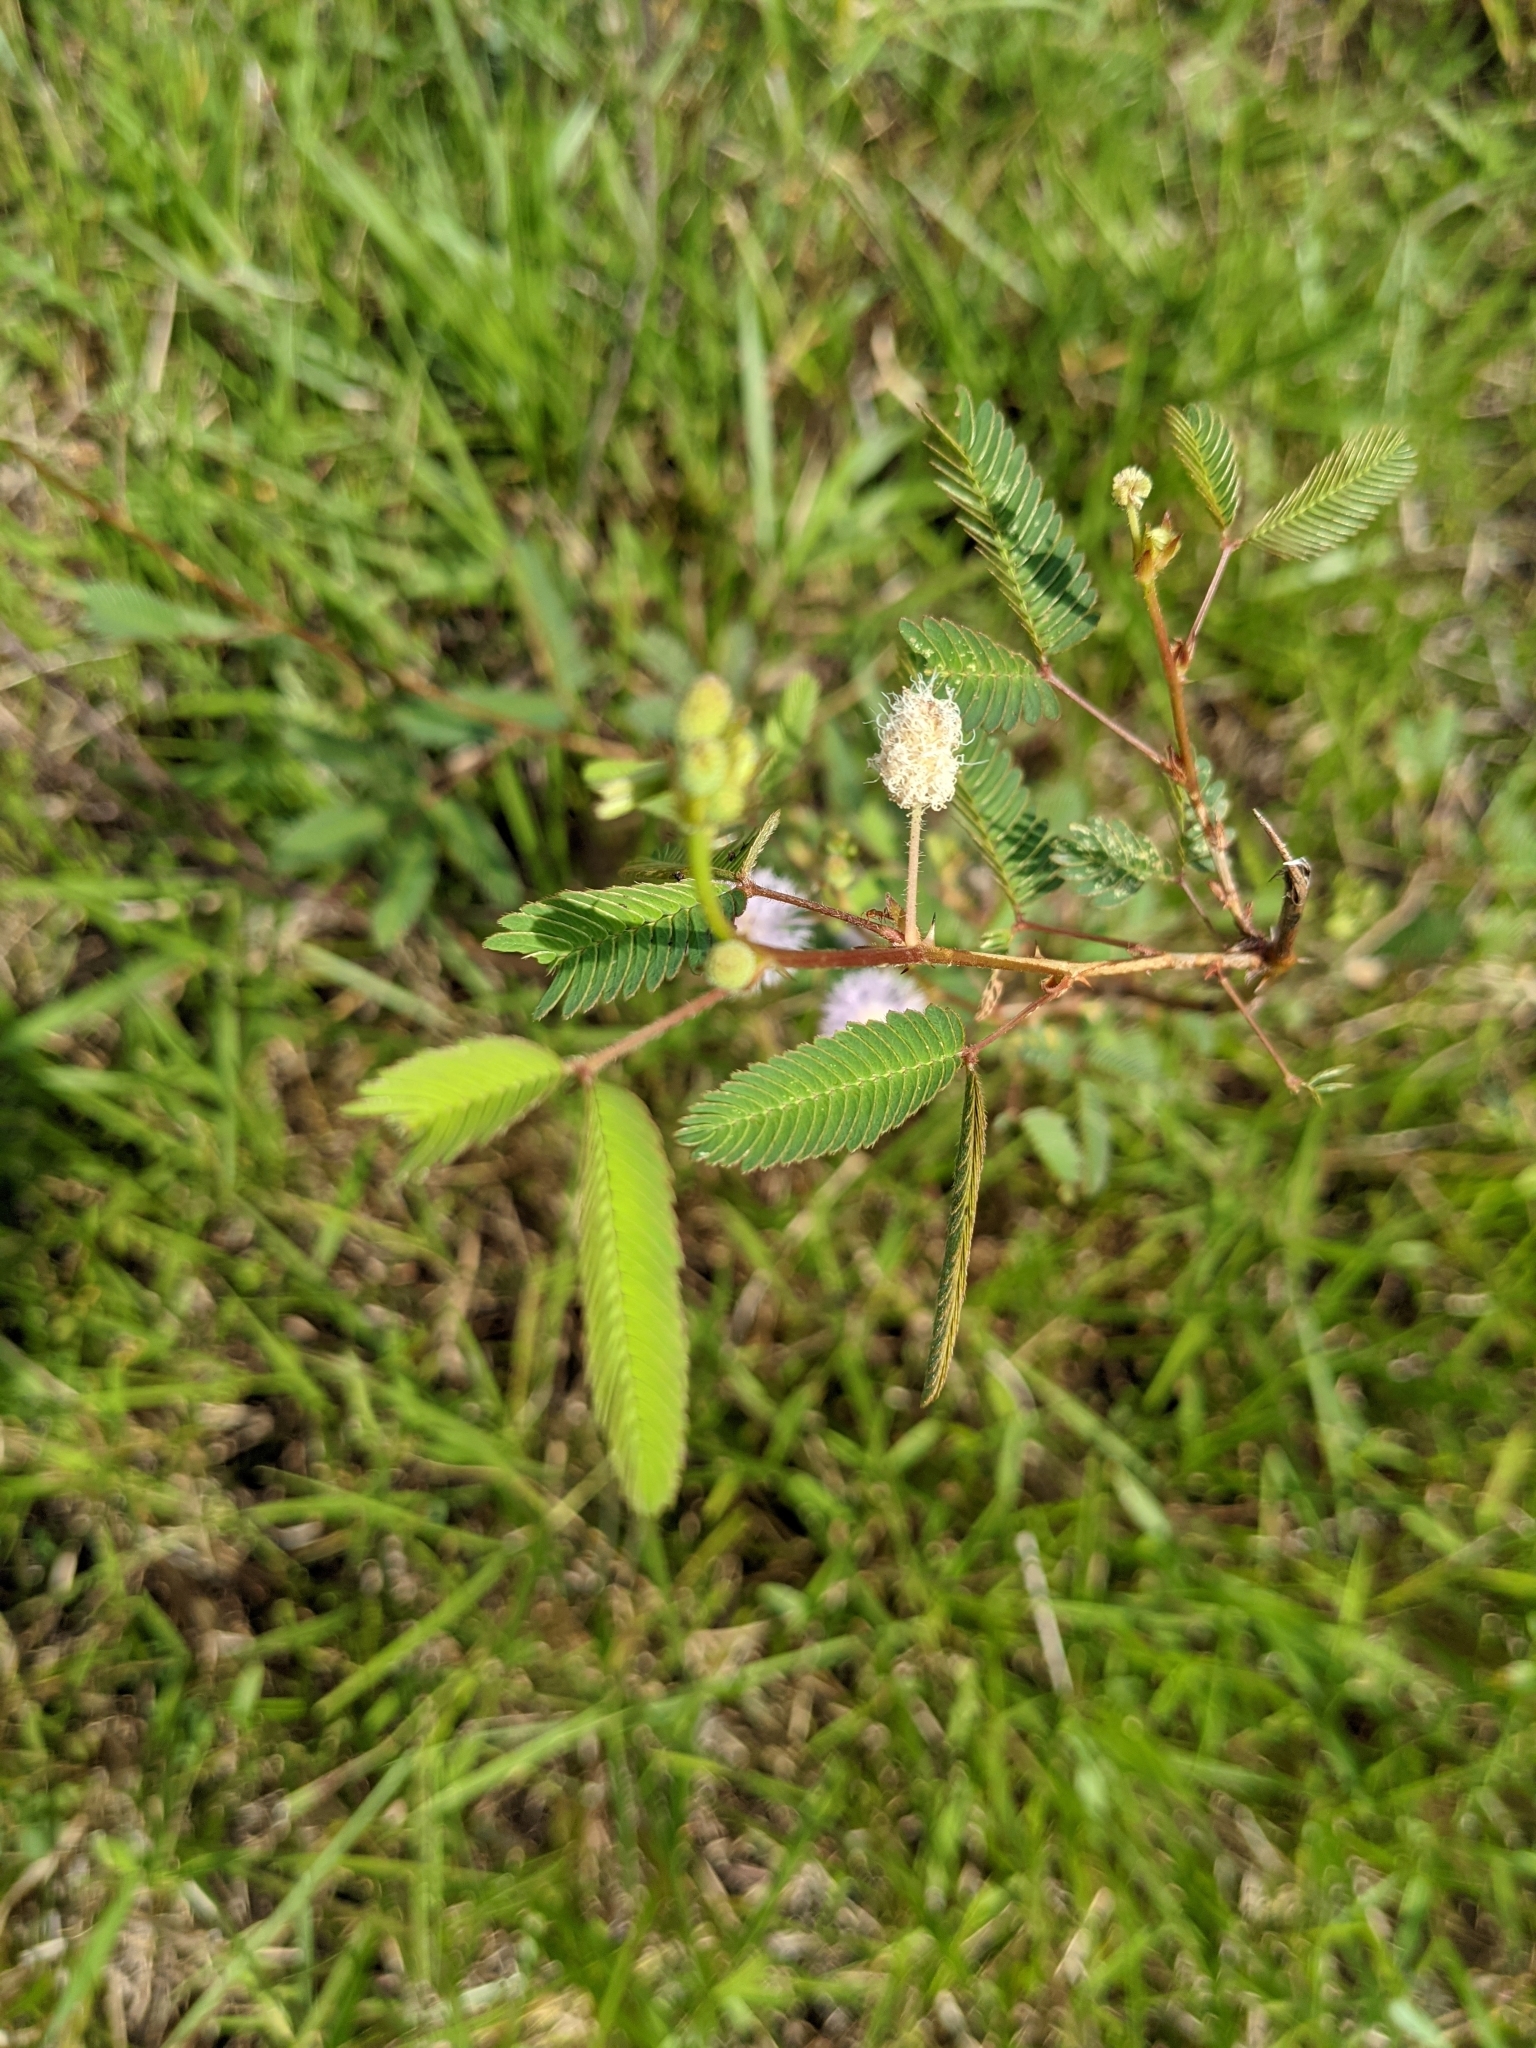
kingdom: Plantae
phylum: Tracheophyta
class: Magnoliopsida
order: Fabales
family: Fabaceae
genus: Mimosa
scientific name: Mimosa pudica
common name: Sensitive plant
